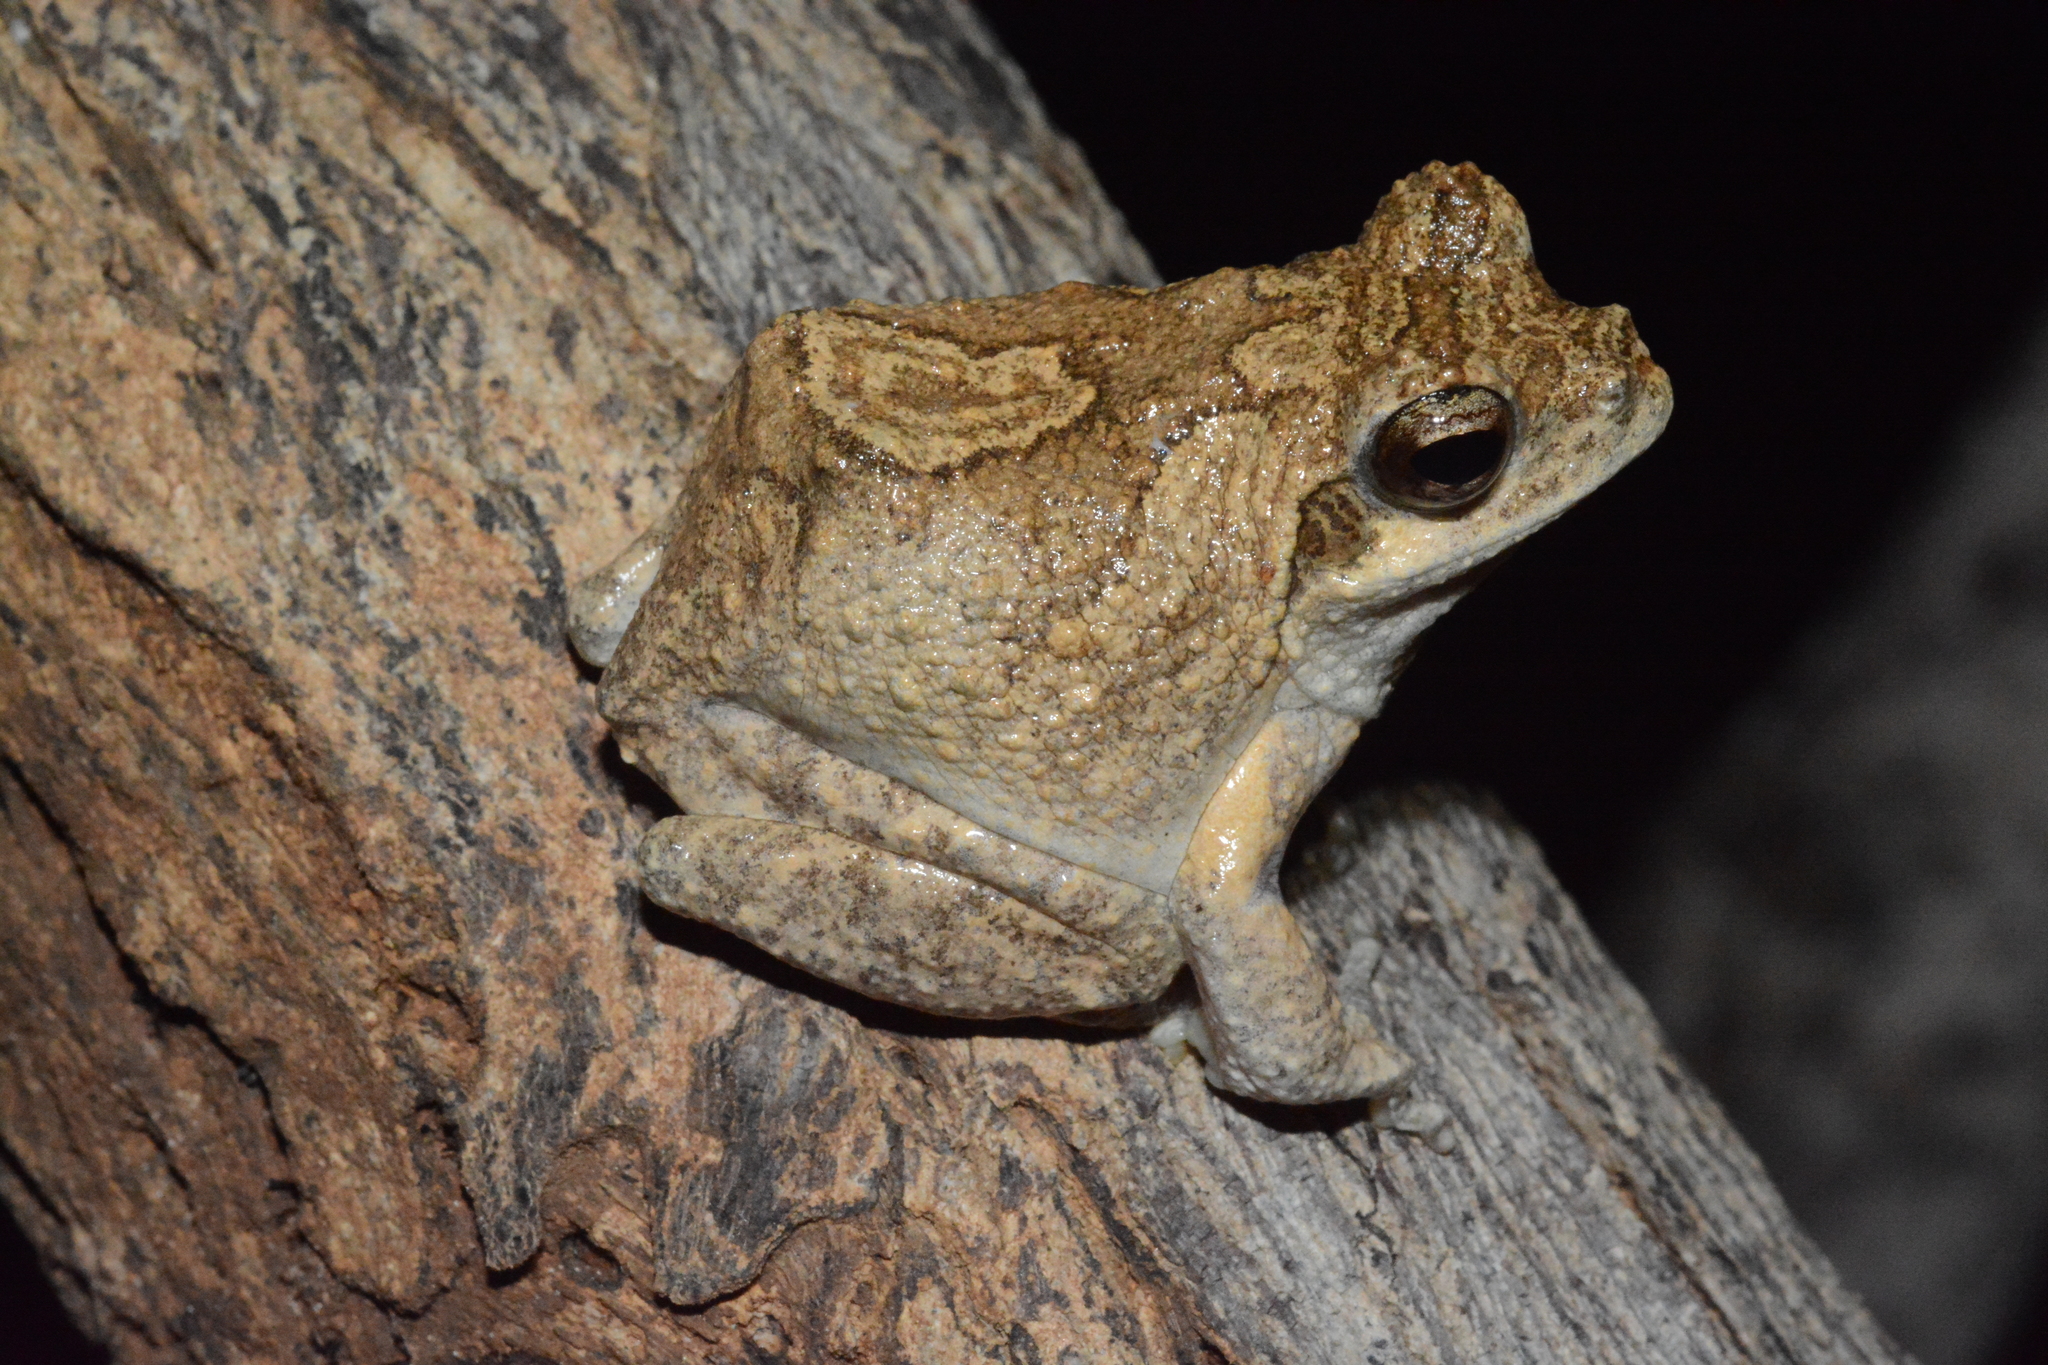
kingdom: Animalia
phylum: Chordata
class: Amphibia
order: Anura
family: Rhacophoridae
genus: Chiromantis
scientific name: Chiromantis petersii
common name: Central foam-nest tree frog
